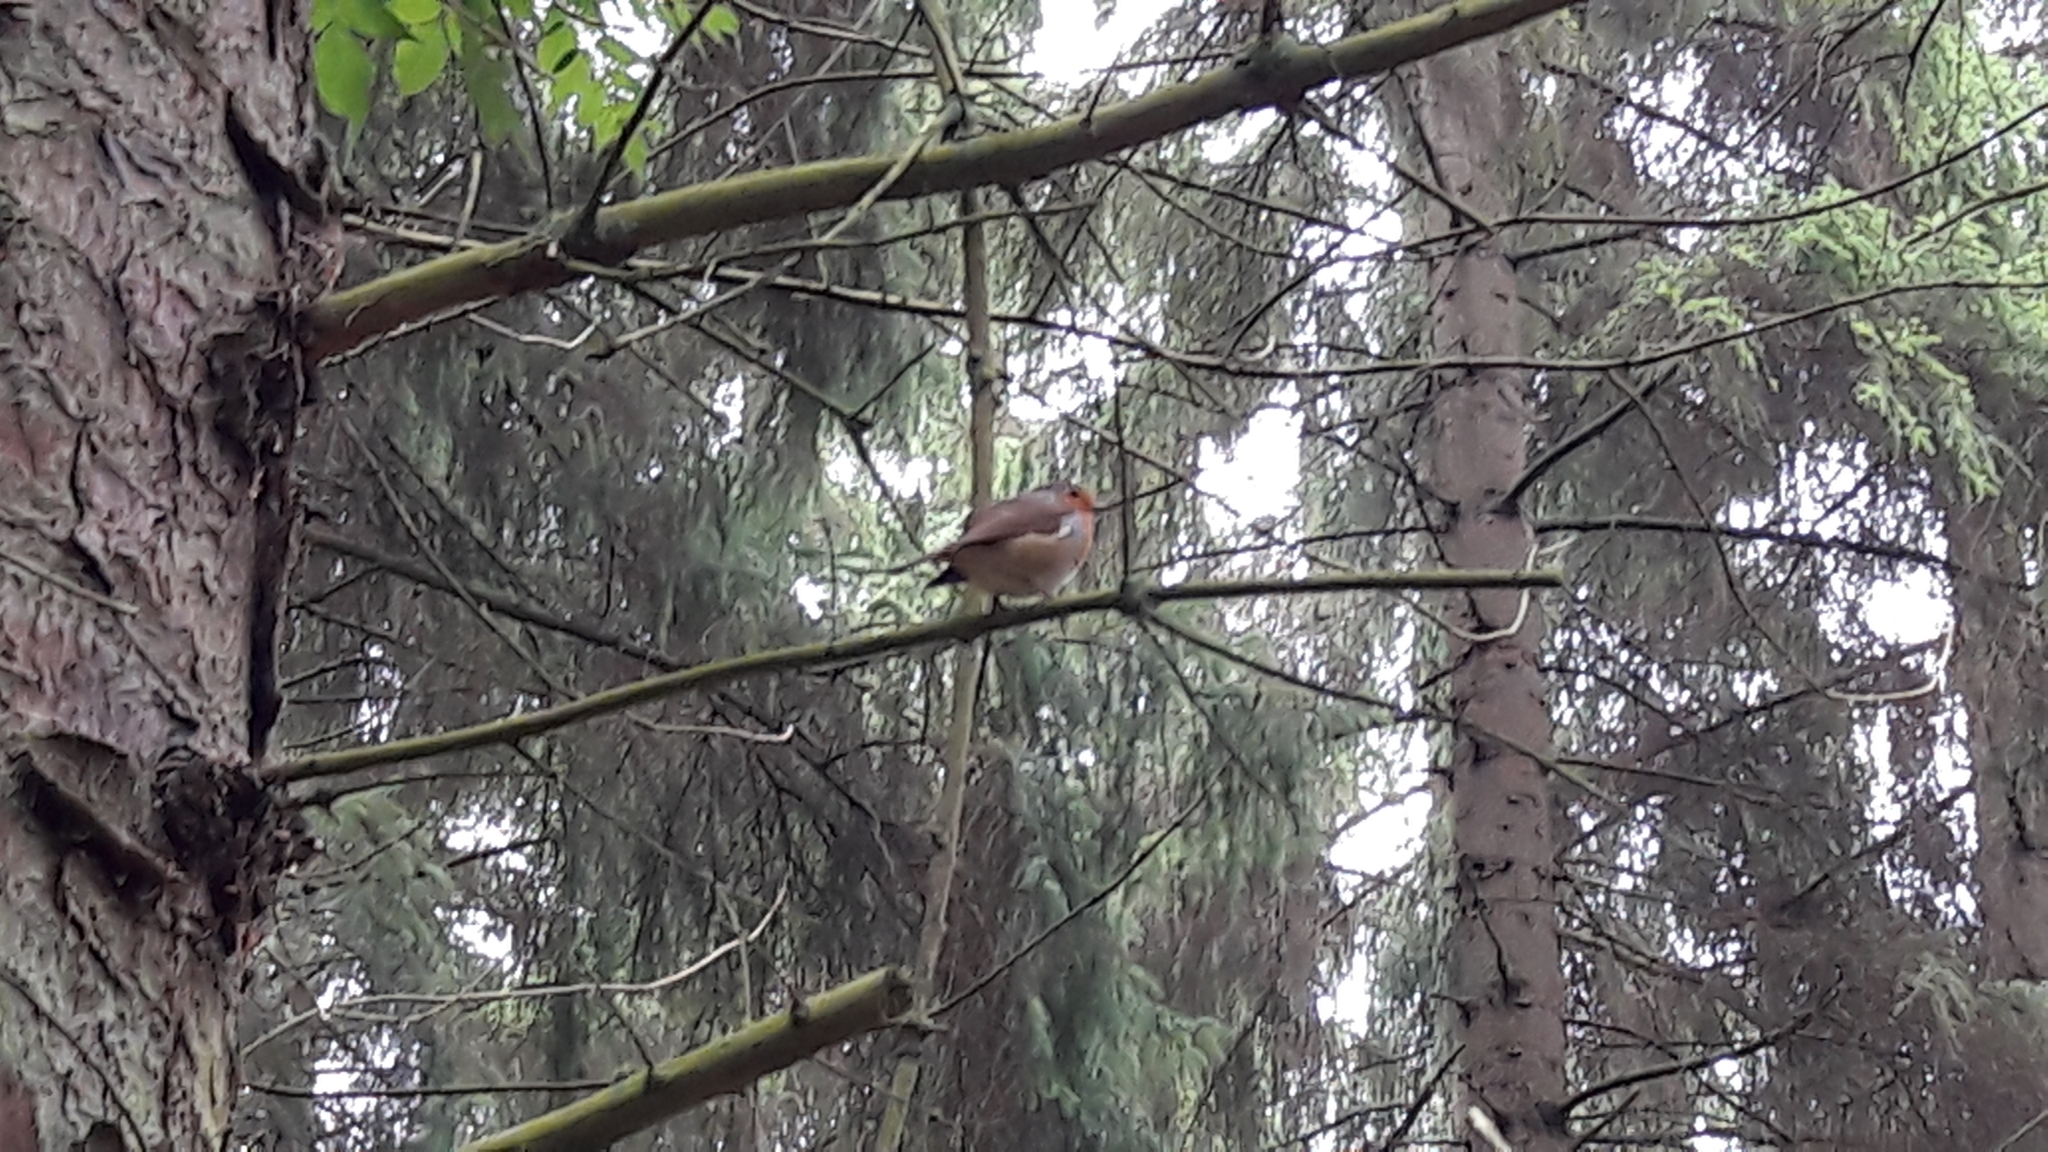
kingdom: Animalia
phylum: Chordata
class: Aves
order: Passeriformes
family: Muscicapidae
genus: Erithacus
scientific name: Erithacus rubecula
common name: European robin
